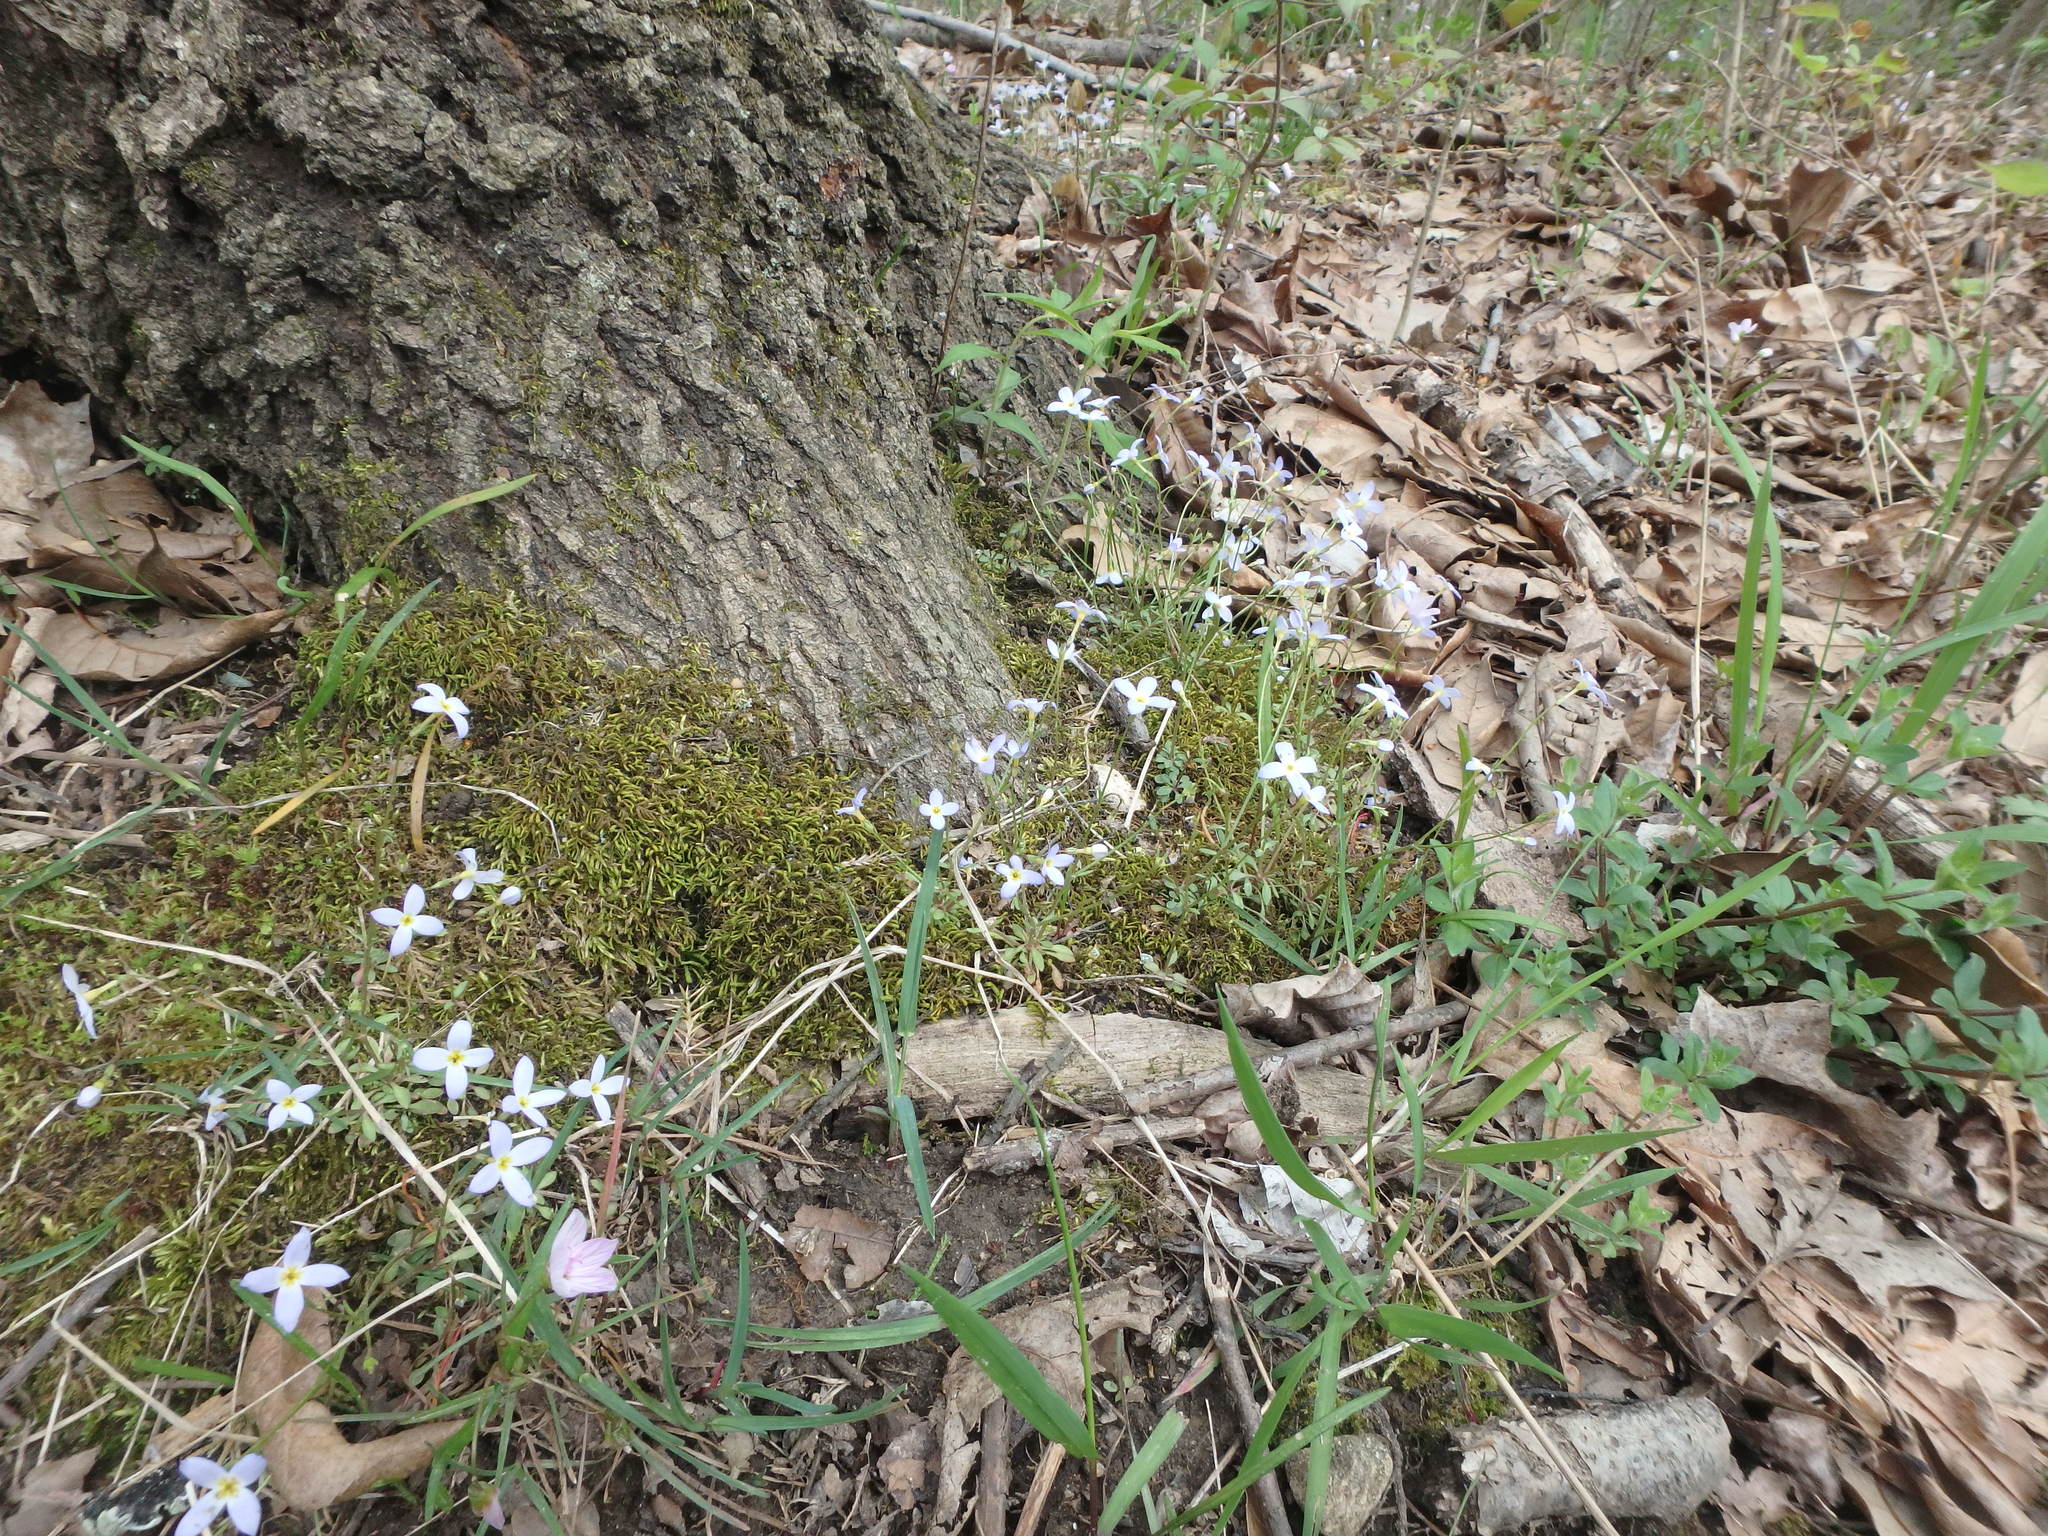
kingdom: Plantae
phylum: Tracheophyta
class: Magnoliopsida
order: Gentianales
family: Rubiaceae
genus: Houstonia
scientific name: Houstonia caerulea
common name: Bluets
